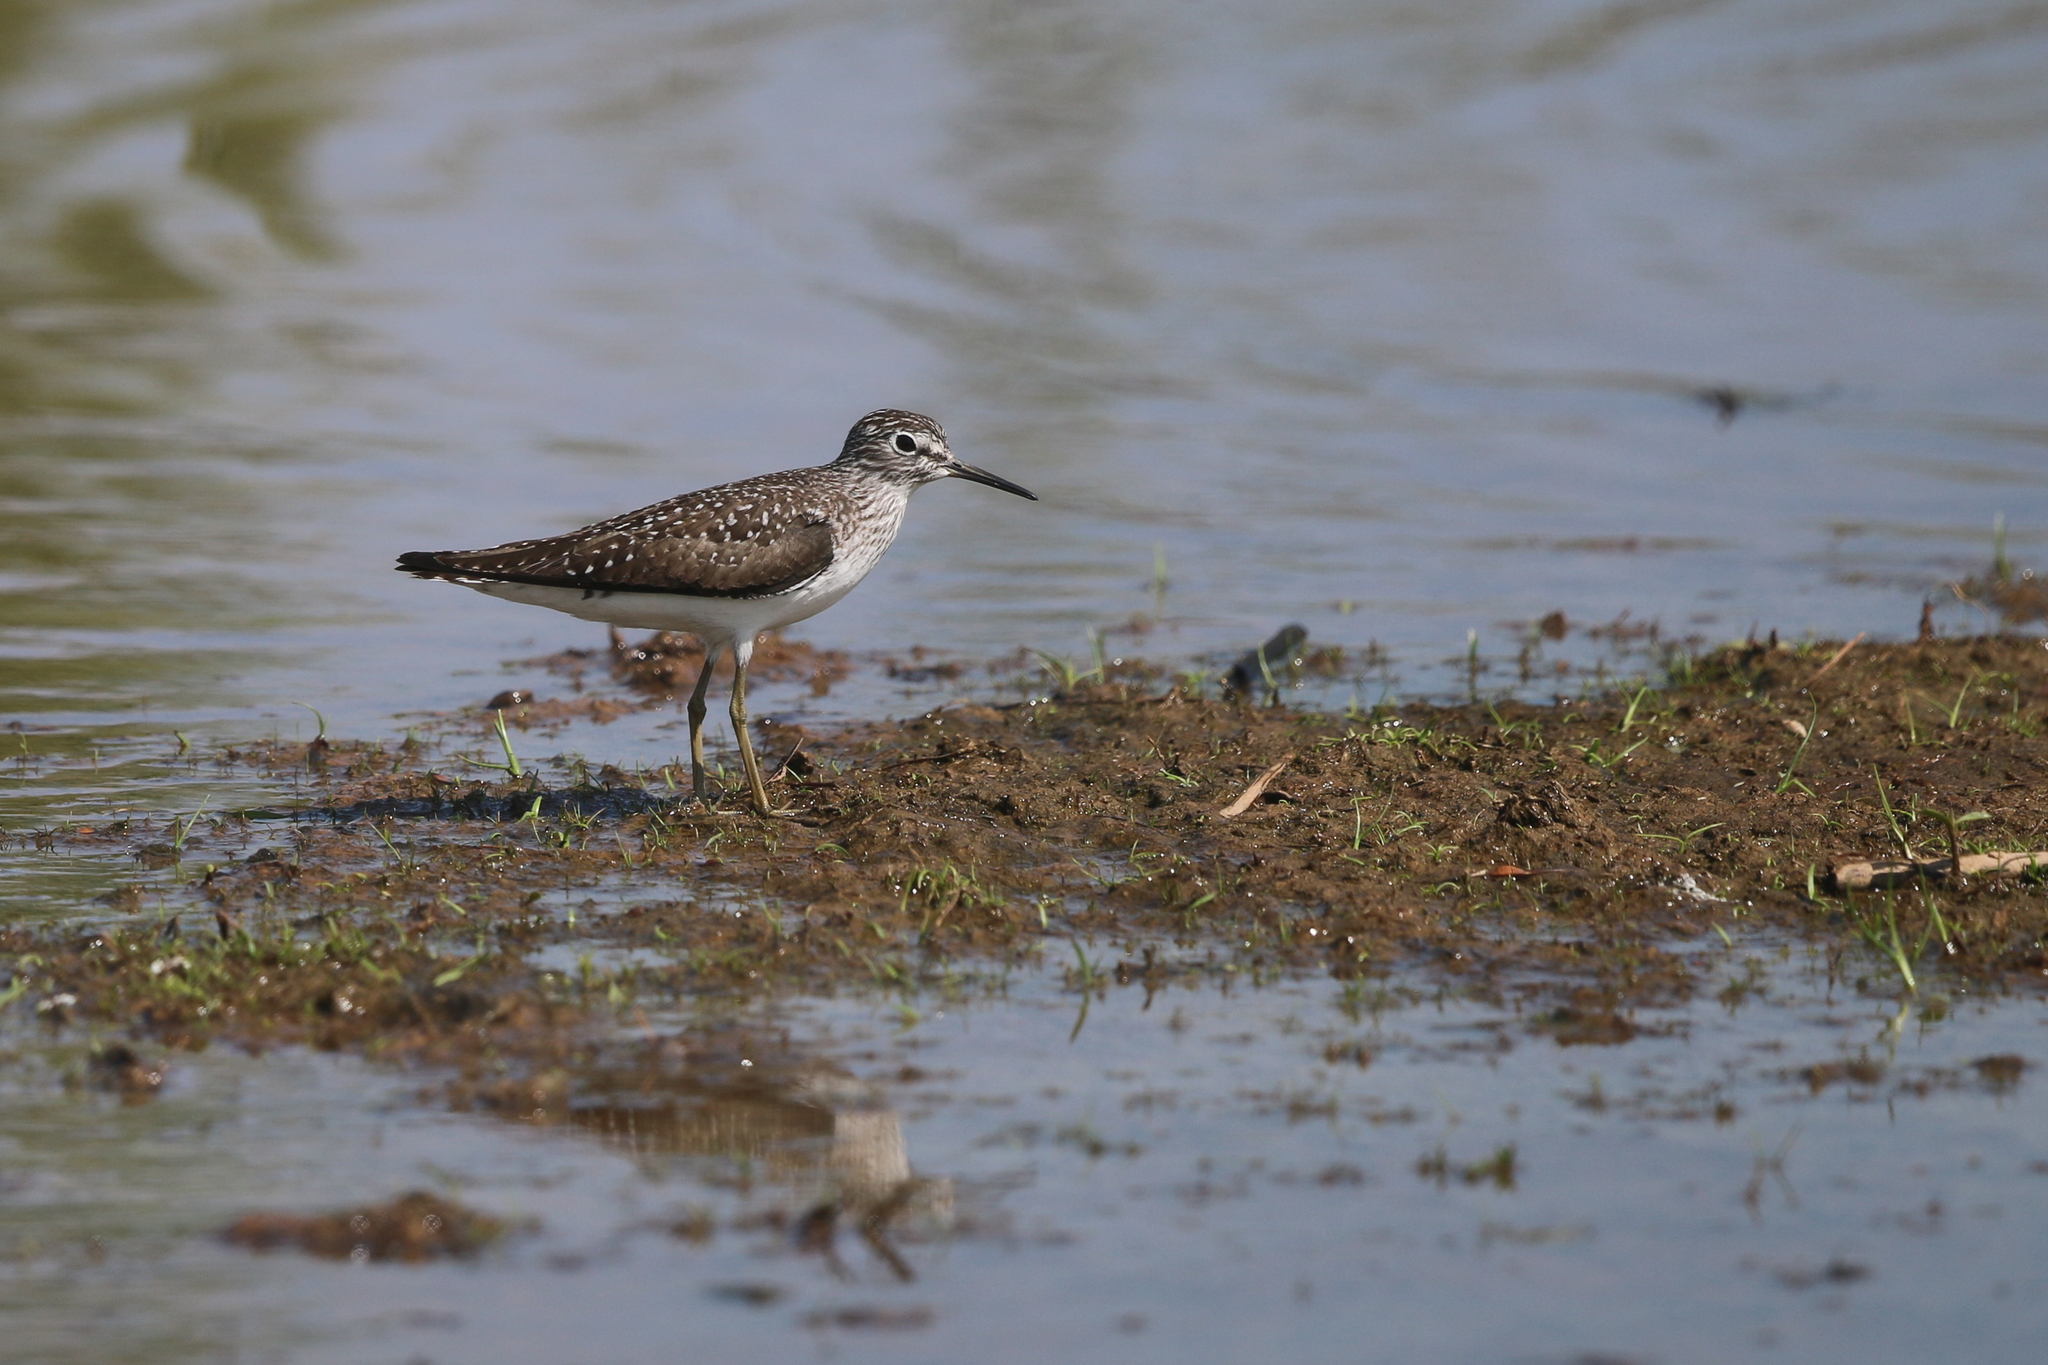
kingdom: Animalia
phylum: Chordata
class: Aves
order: Charadriiformes
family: Scolopacidae
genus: Tringa
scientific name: Tringa solitaria
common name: Solitary sandpiper
